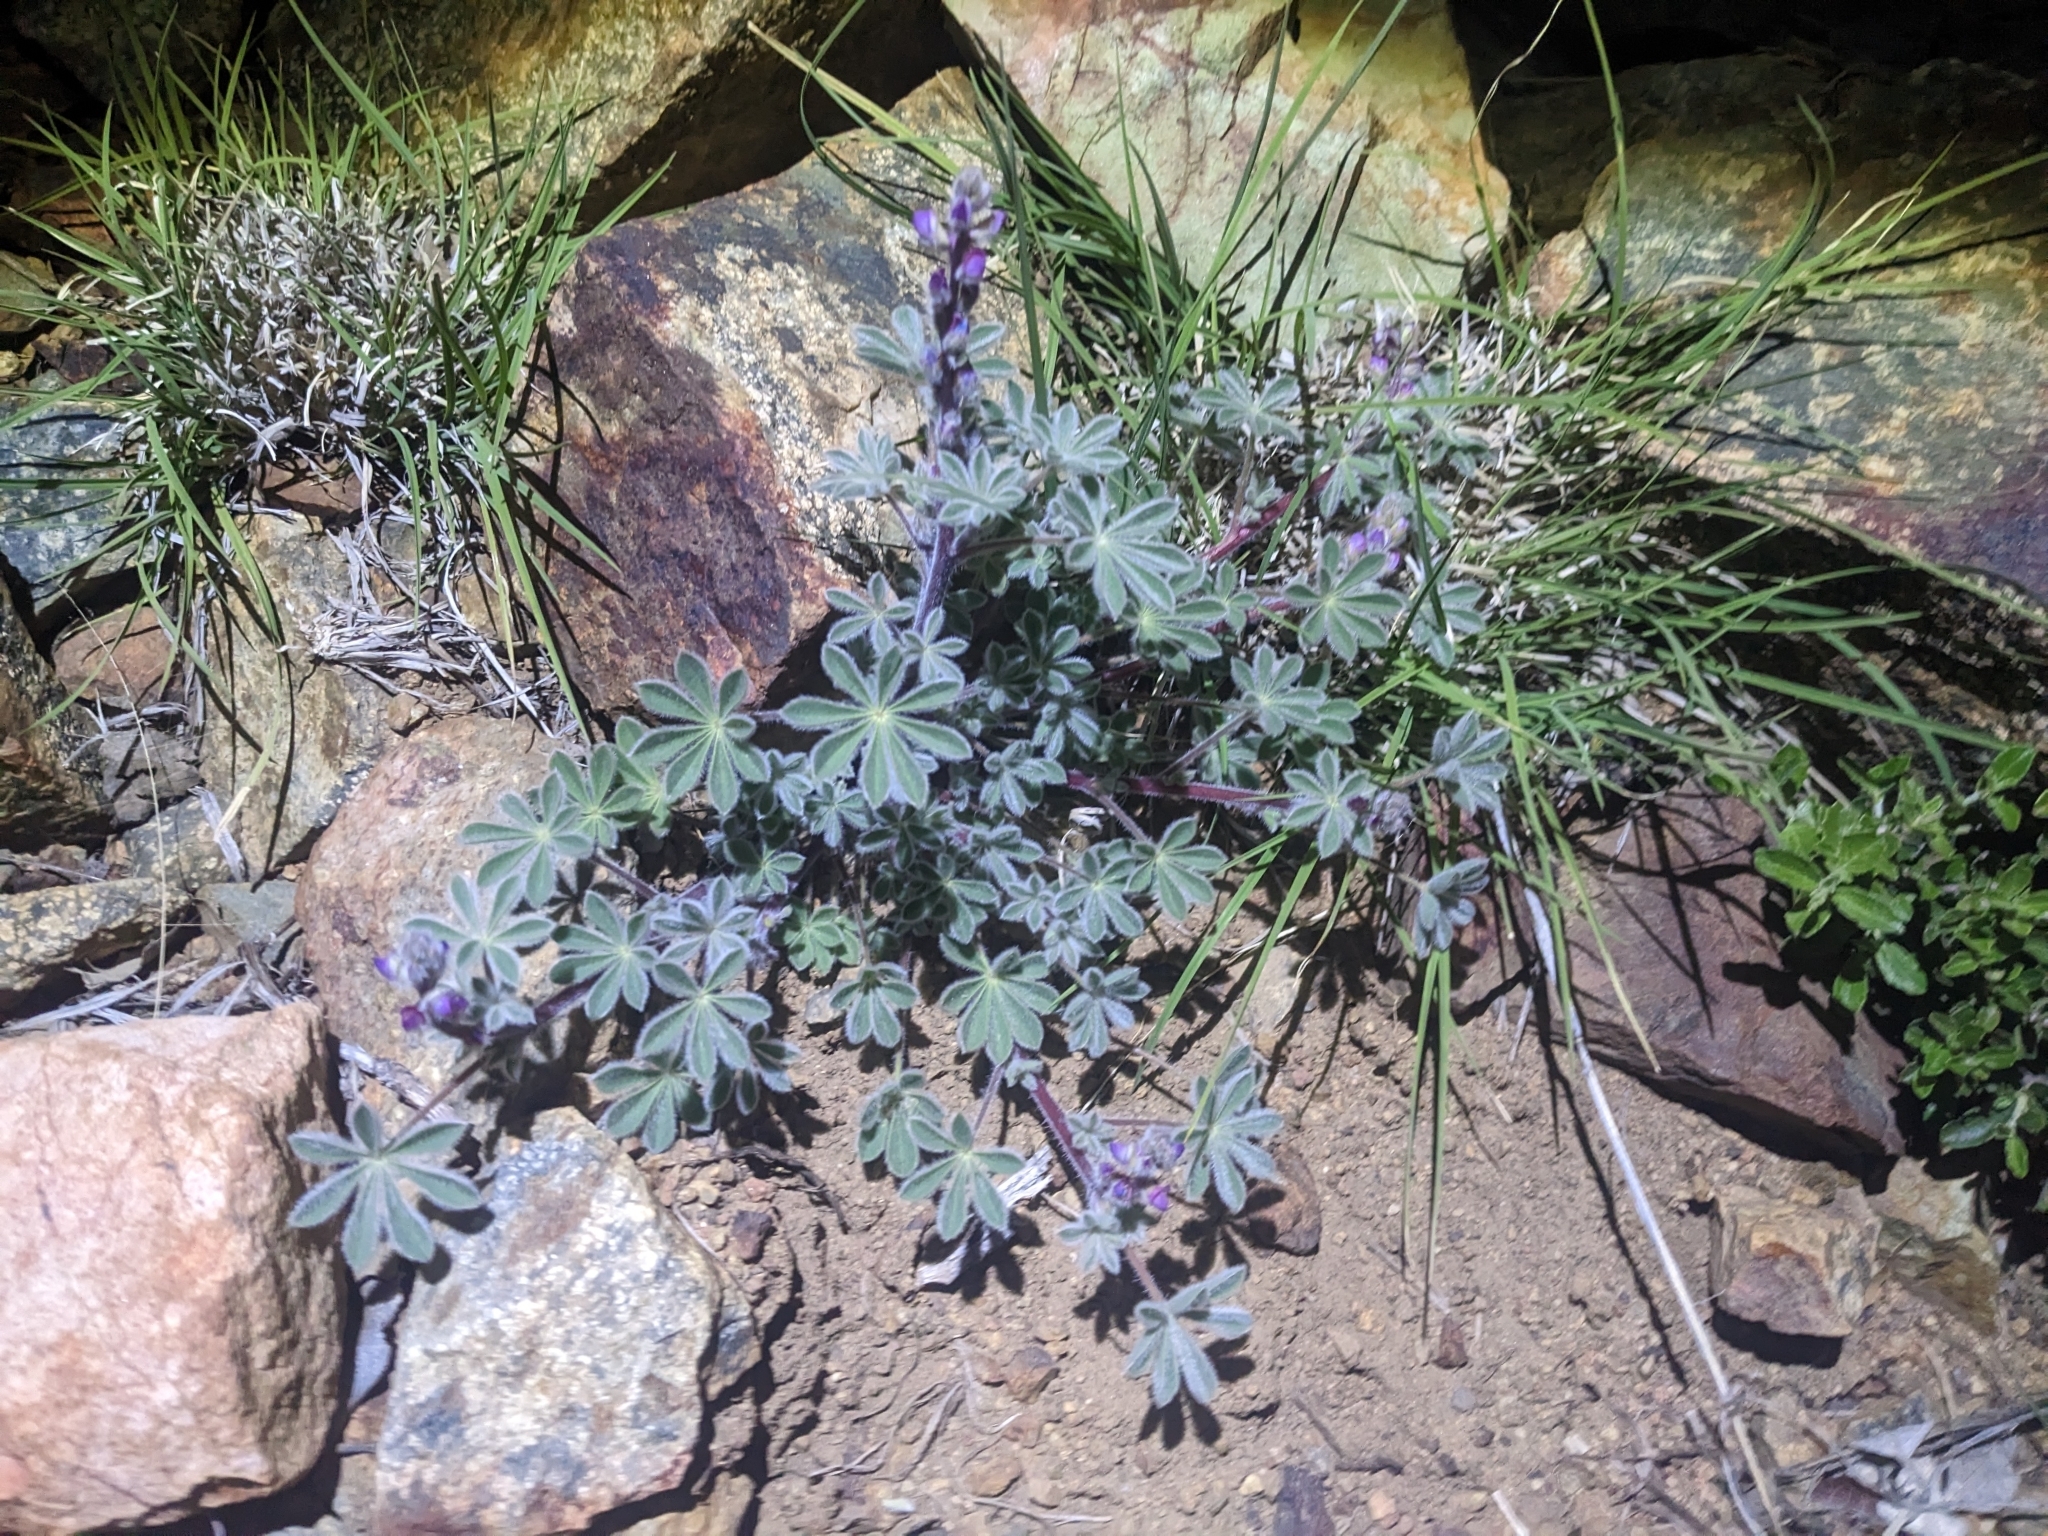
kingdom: Plantae
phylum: Tracheophyta
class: Magnoliopsida
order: Fabales
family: Fabaceae
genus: Lupinus
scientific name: Lupinus concinnus
